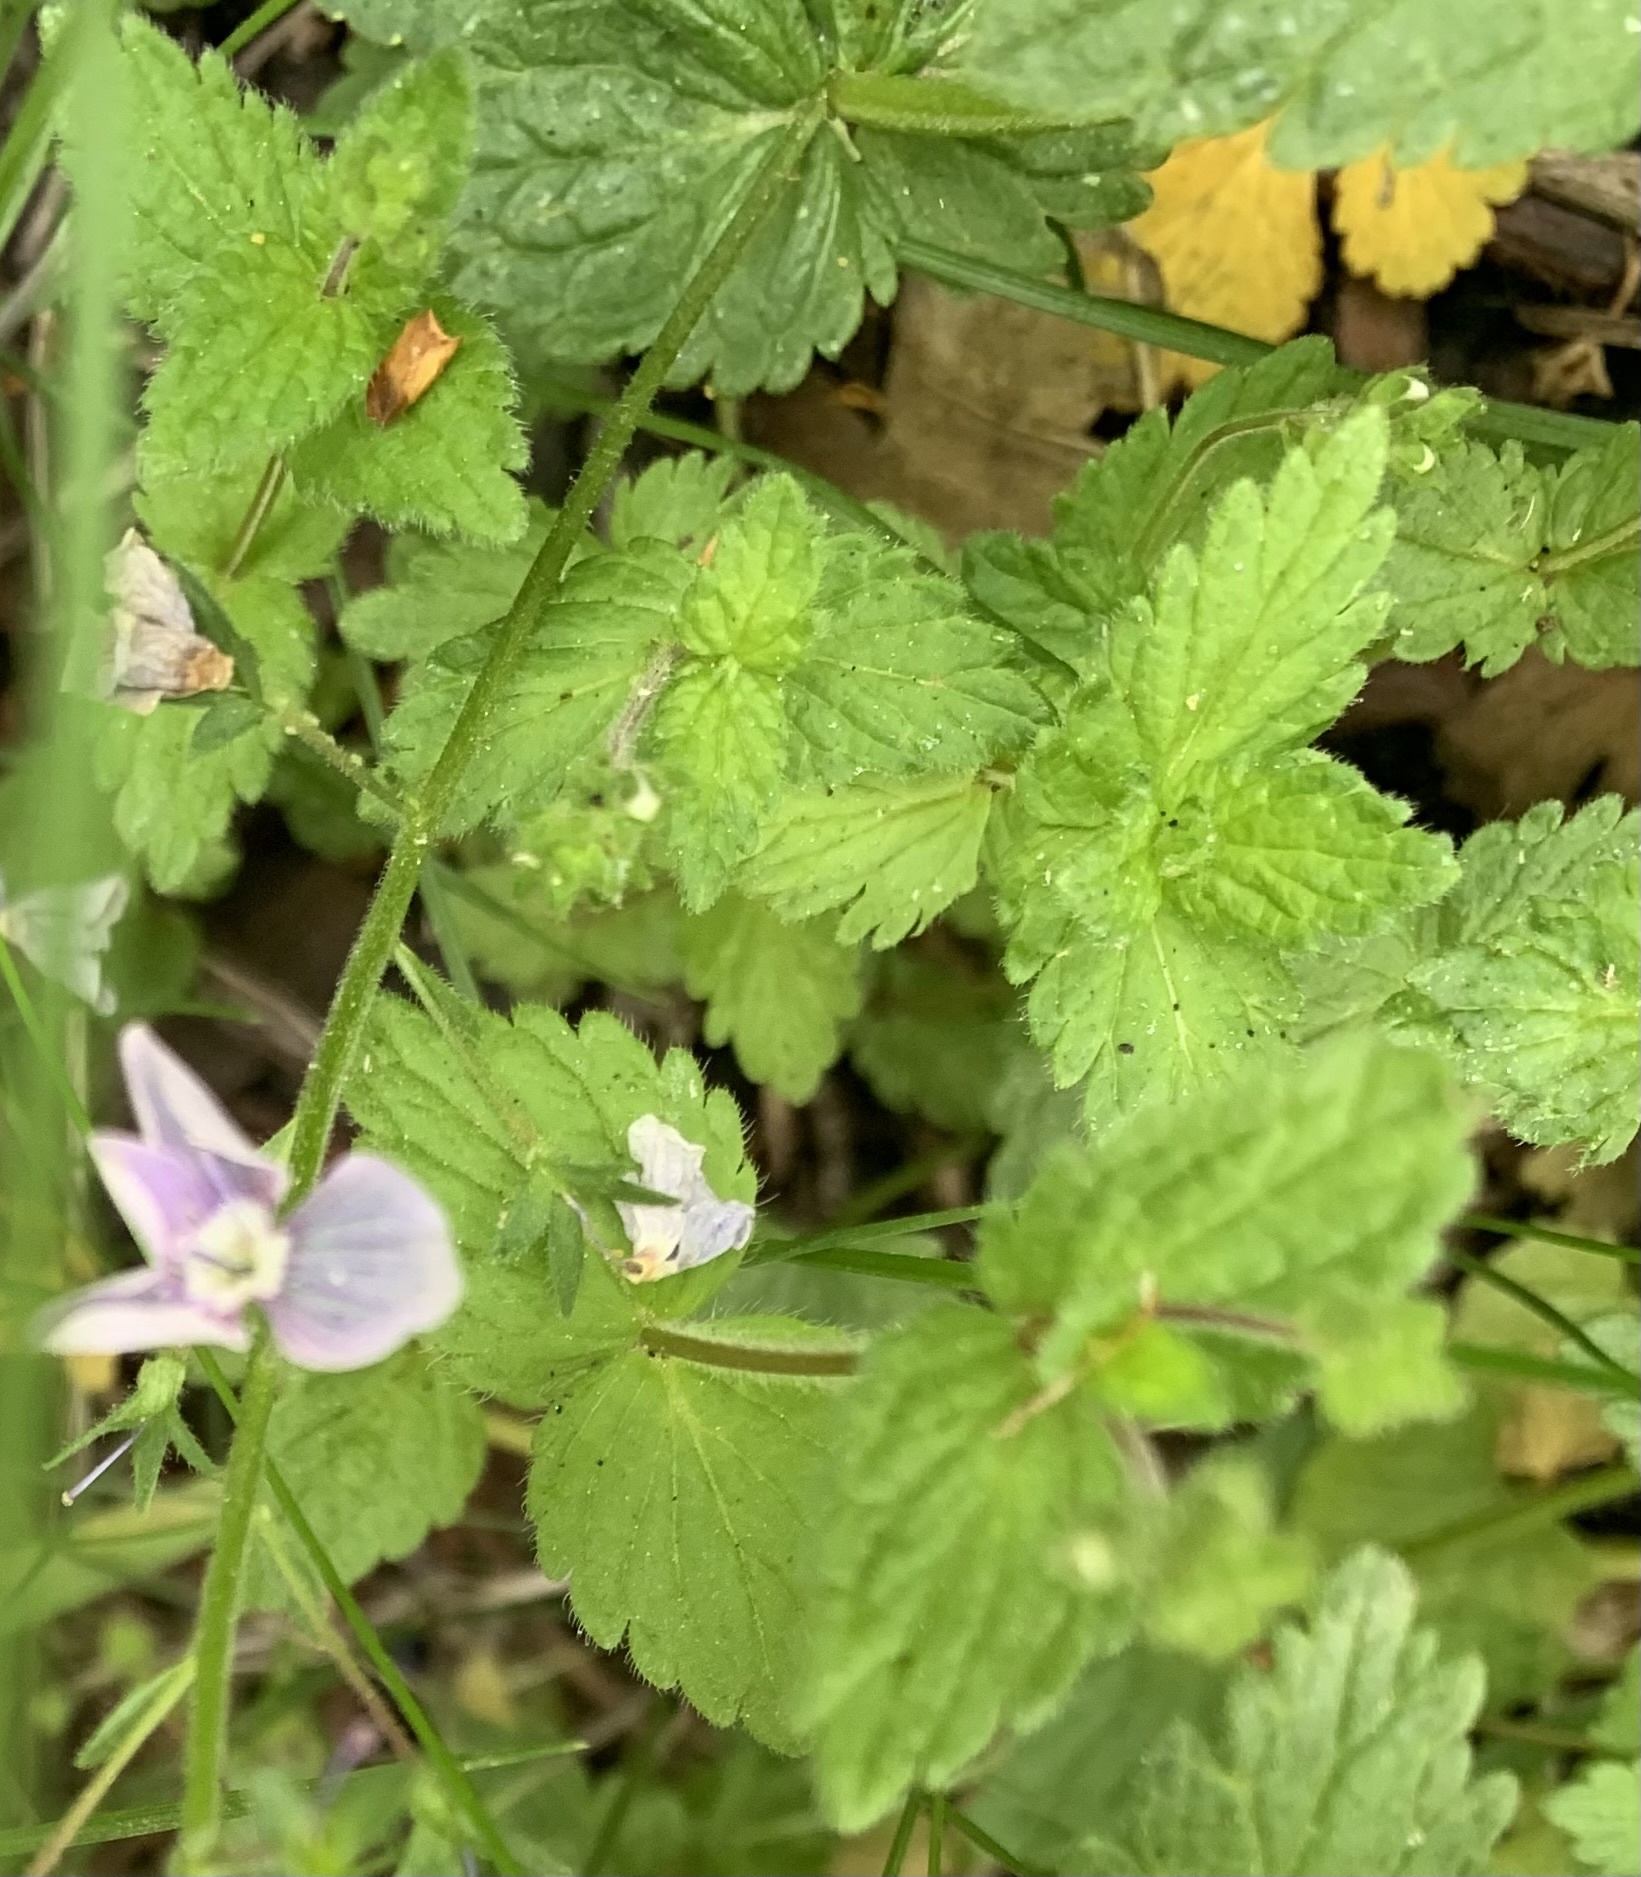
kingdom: Plantae
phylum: Tracheophyta
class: Magnoliopsida
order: Lamiales
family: Plantaginaceae
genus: Veronica
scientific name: Veronica chamaedrys
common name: Germander speedwell
